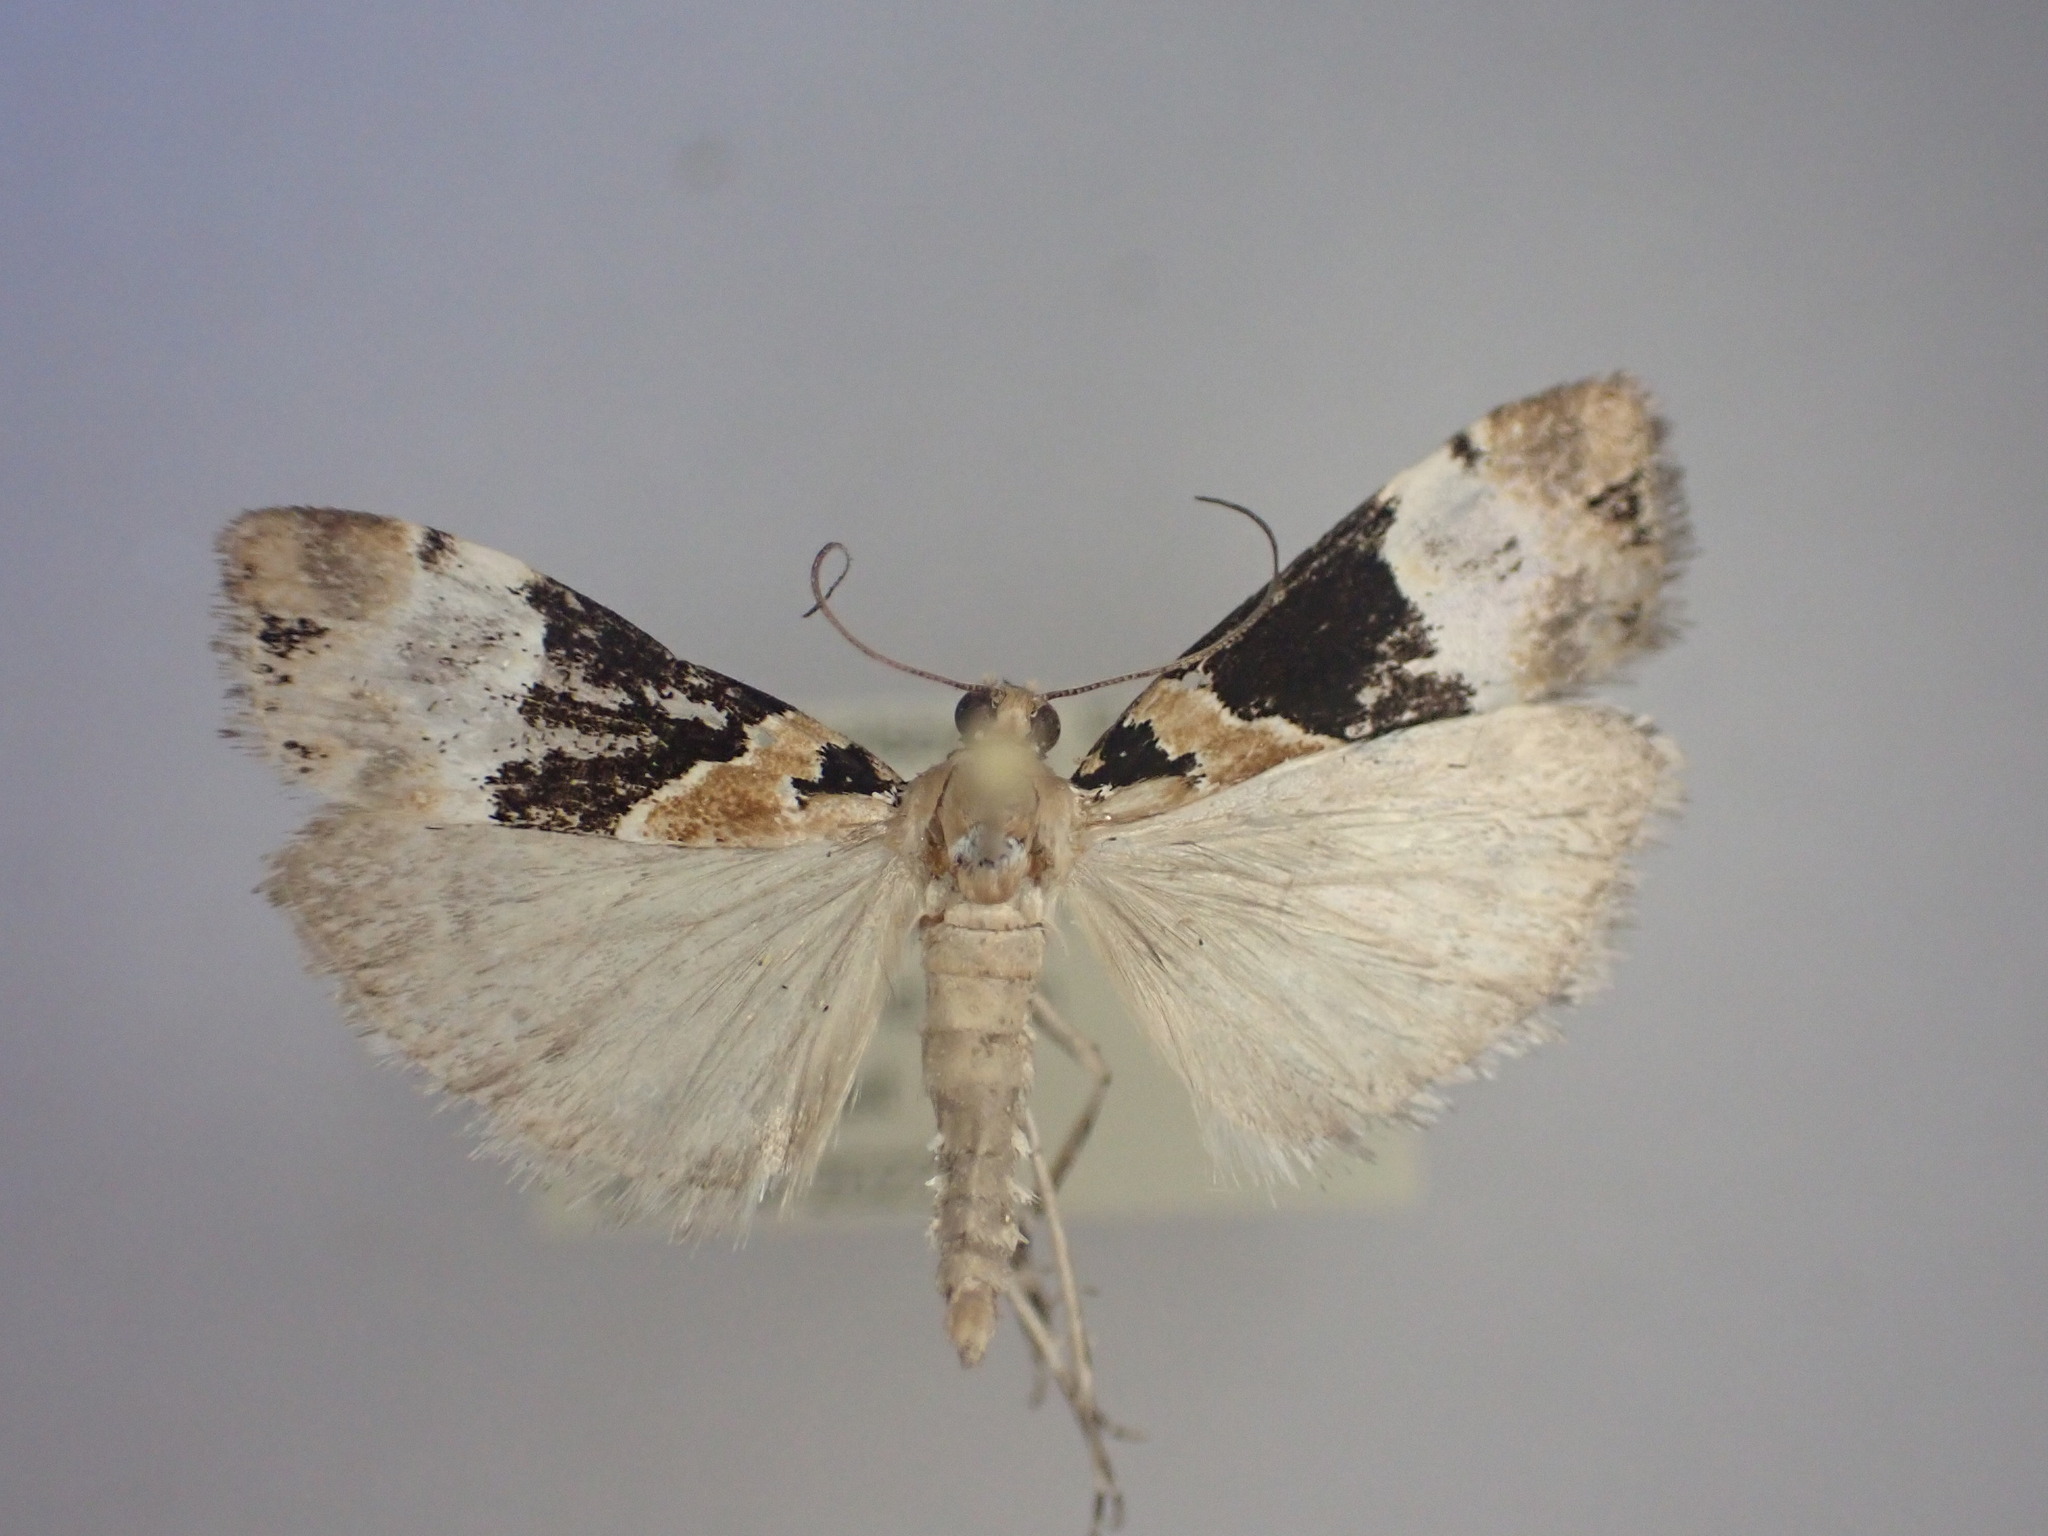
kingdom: Animalia
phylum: Arthropoda
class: Insecta
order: Lepidoptera
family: Crambidae
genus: Eudonia
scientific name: Eudonia aspidota
